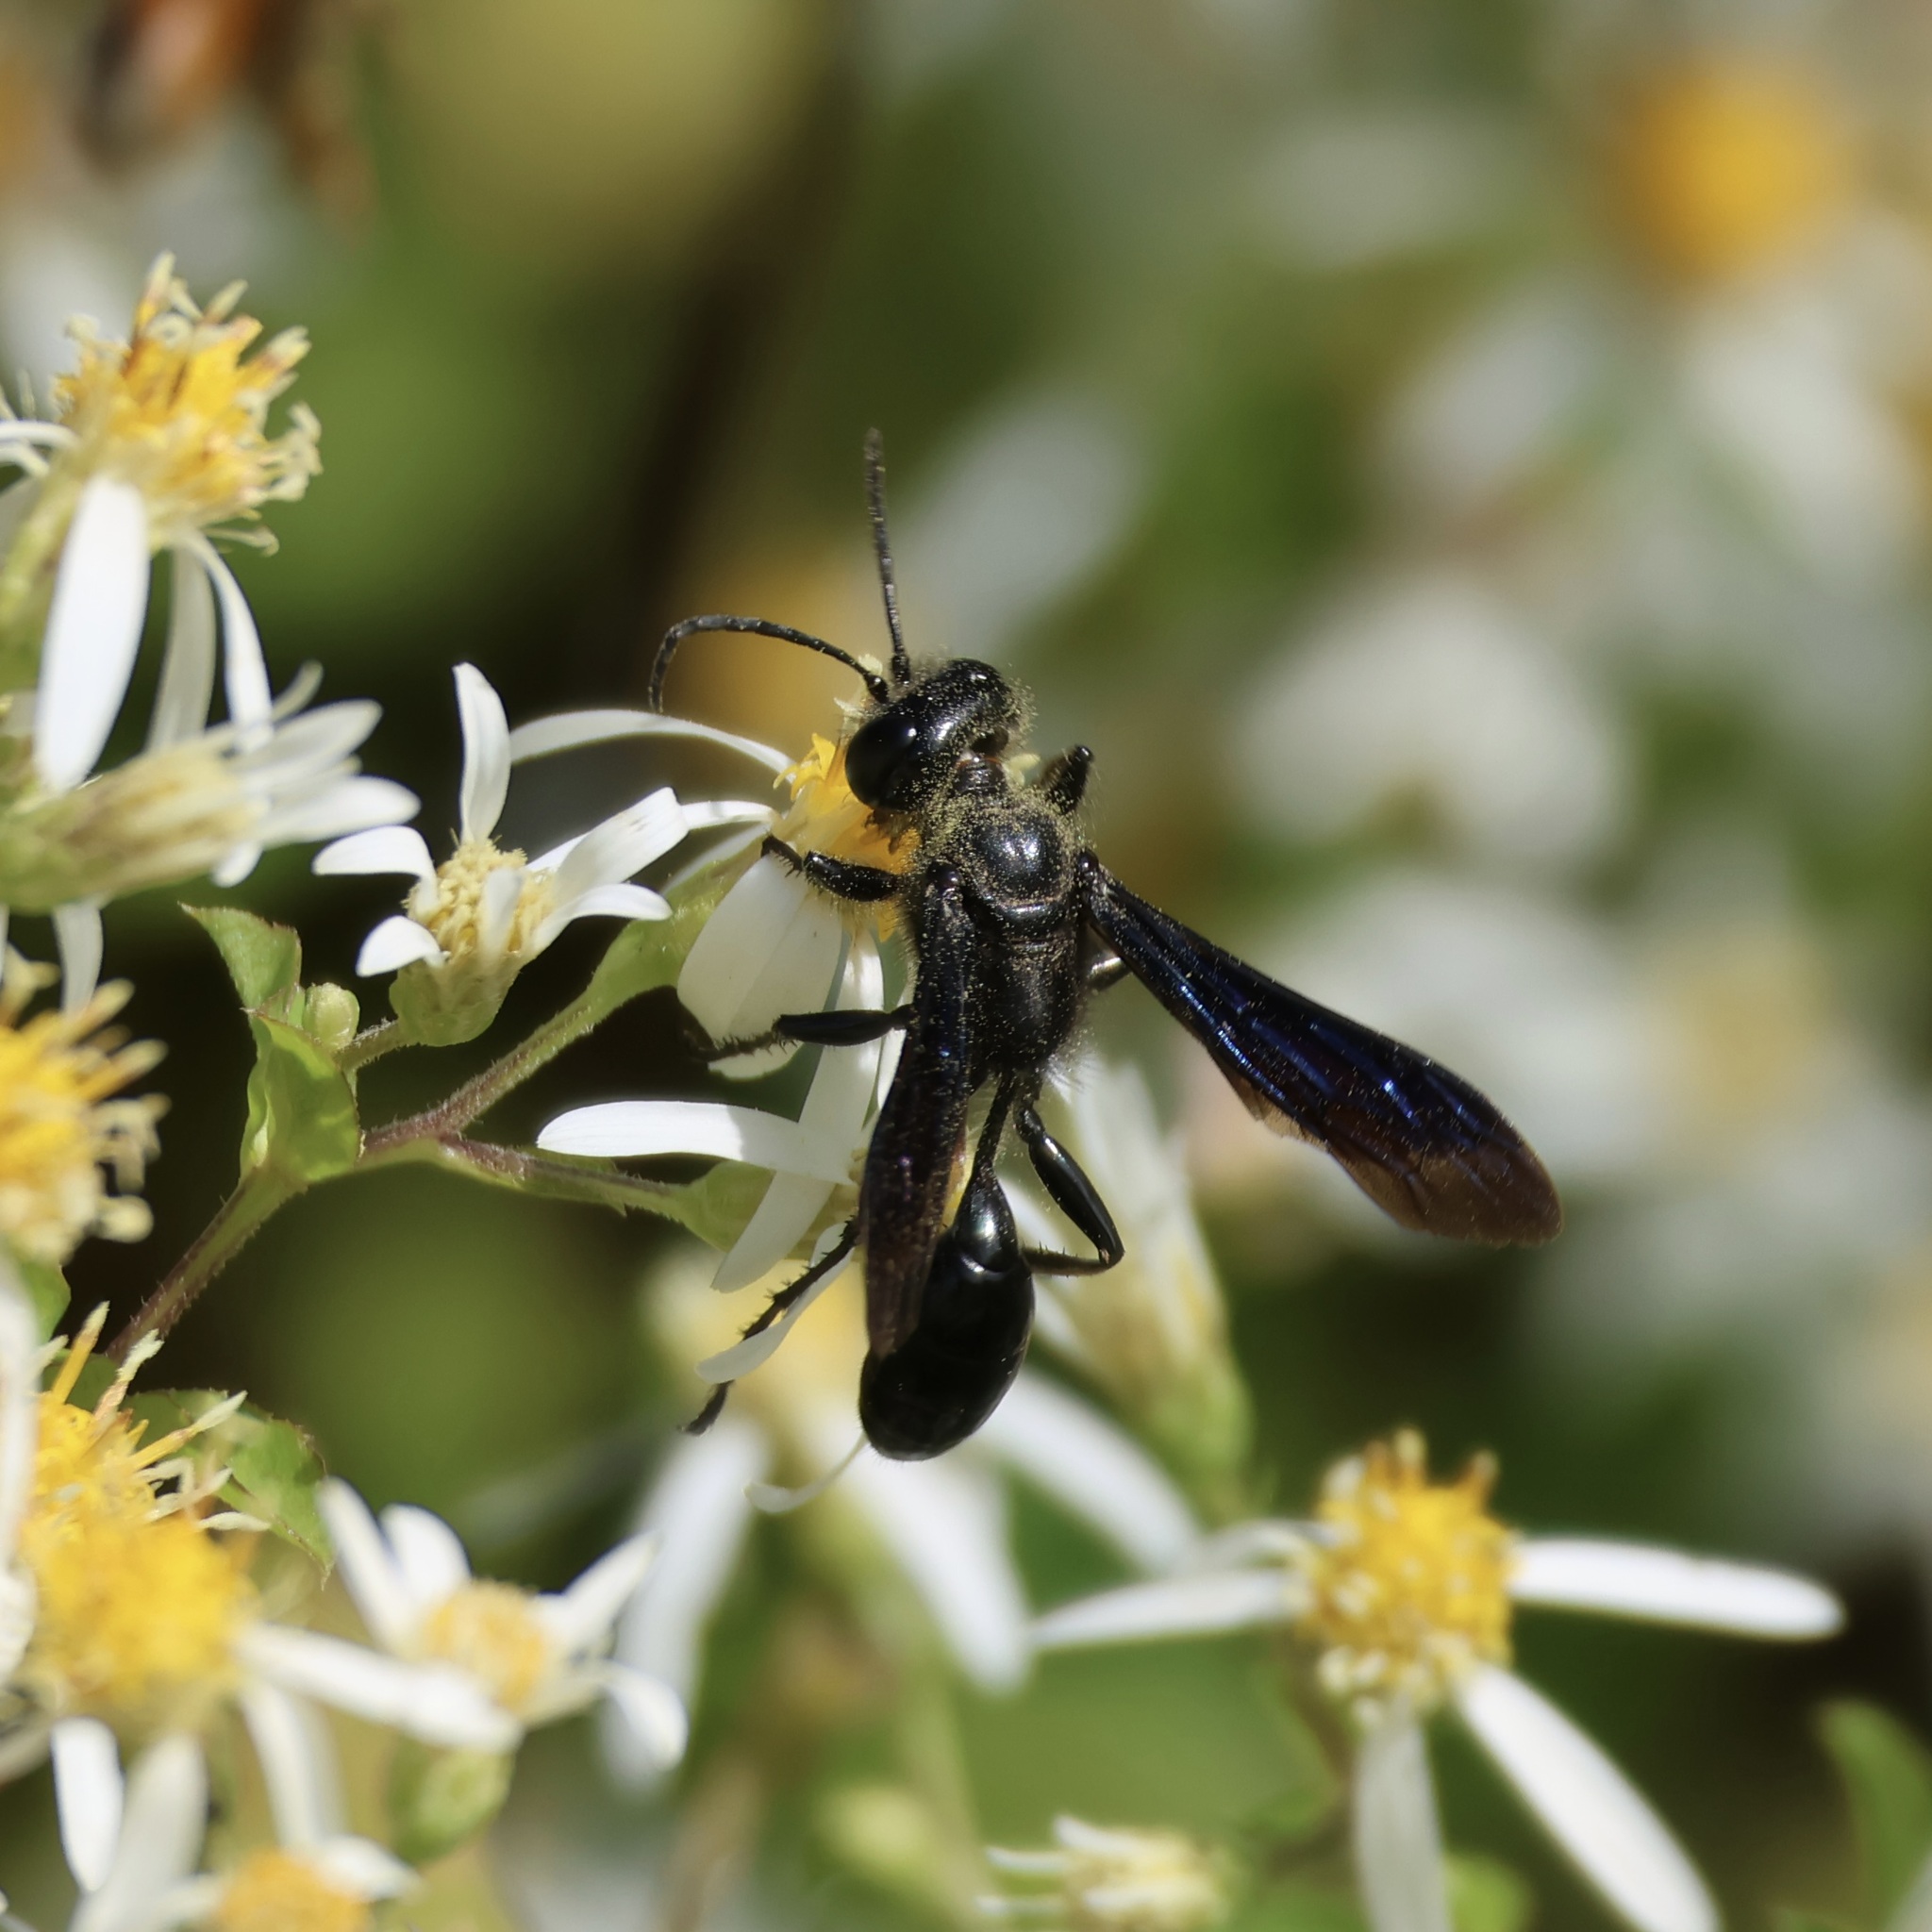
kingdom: Animalia
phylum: Arthropoda
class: Insecta
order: Hymenoptera
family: Sphecidae
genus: Isodontia
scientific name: Isodontia philadelphica
